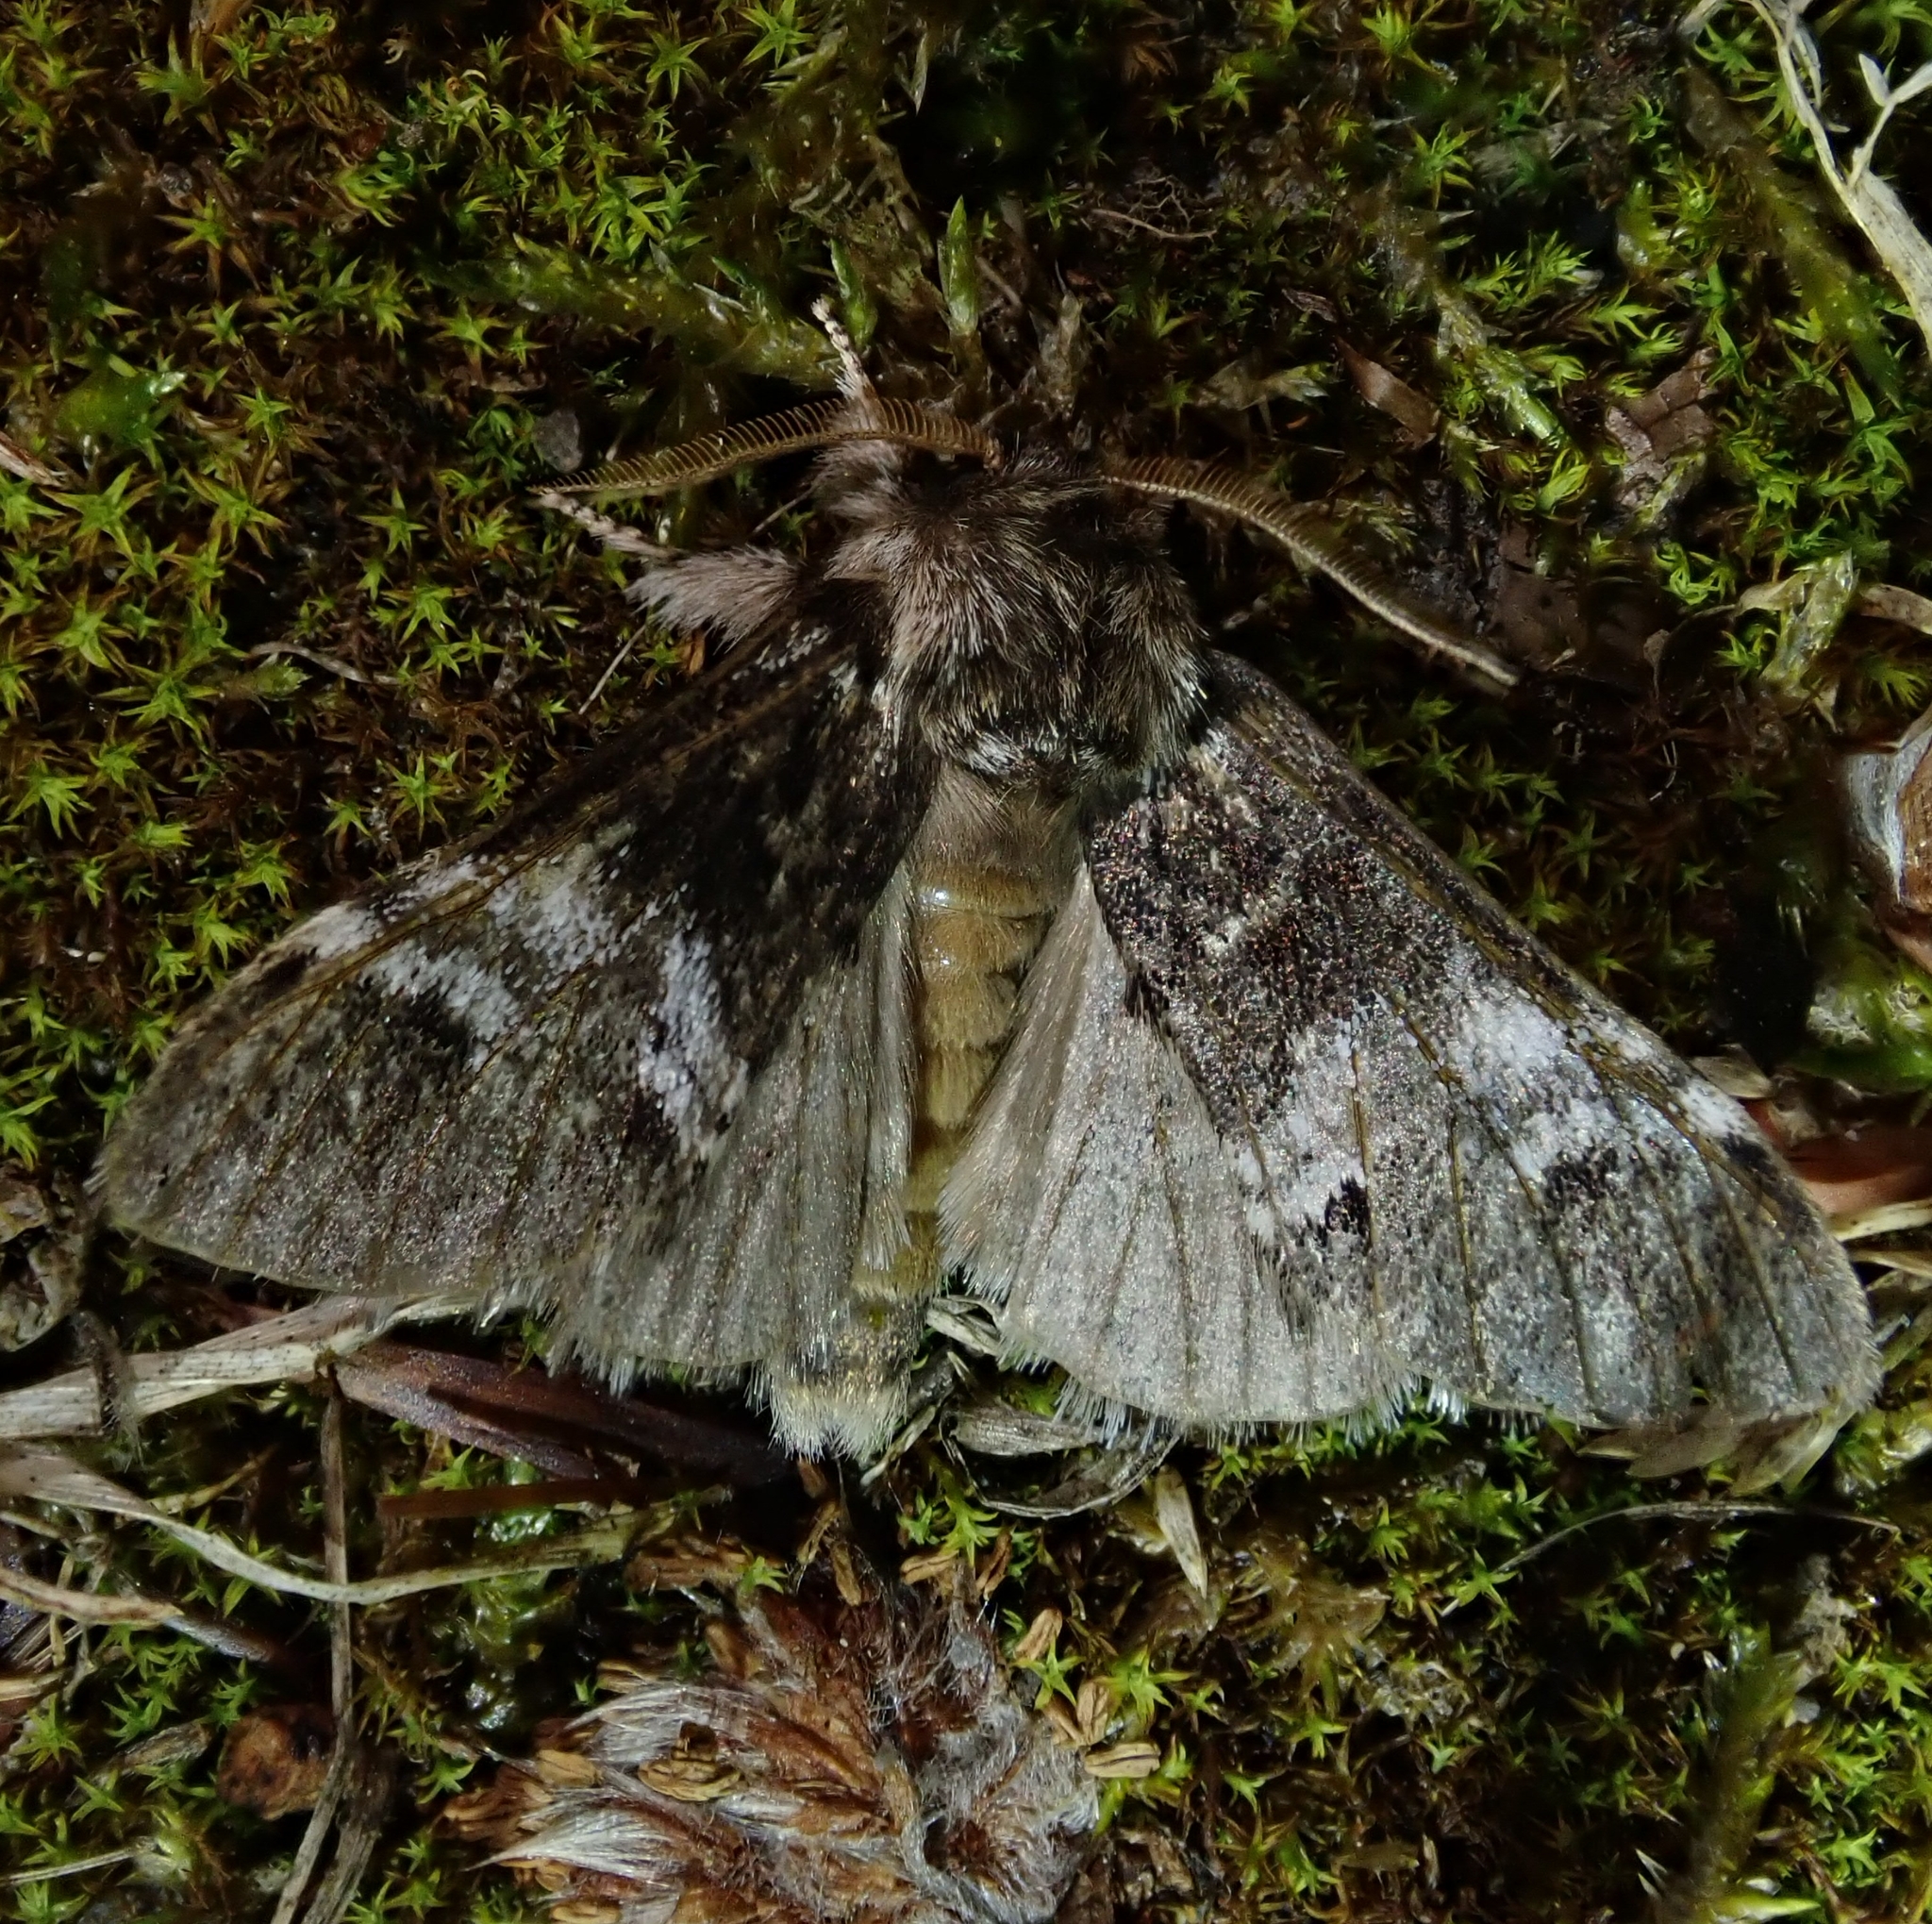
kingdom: Animalia
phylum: Arthropoda
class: Insecta
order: Lepidoptera
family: Notodontidae
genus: Drymonia
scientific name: Drymonia dodonaea
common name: Marbled brown
